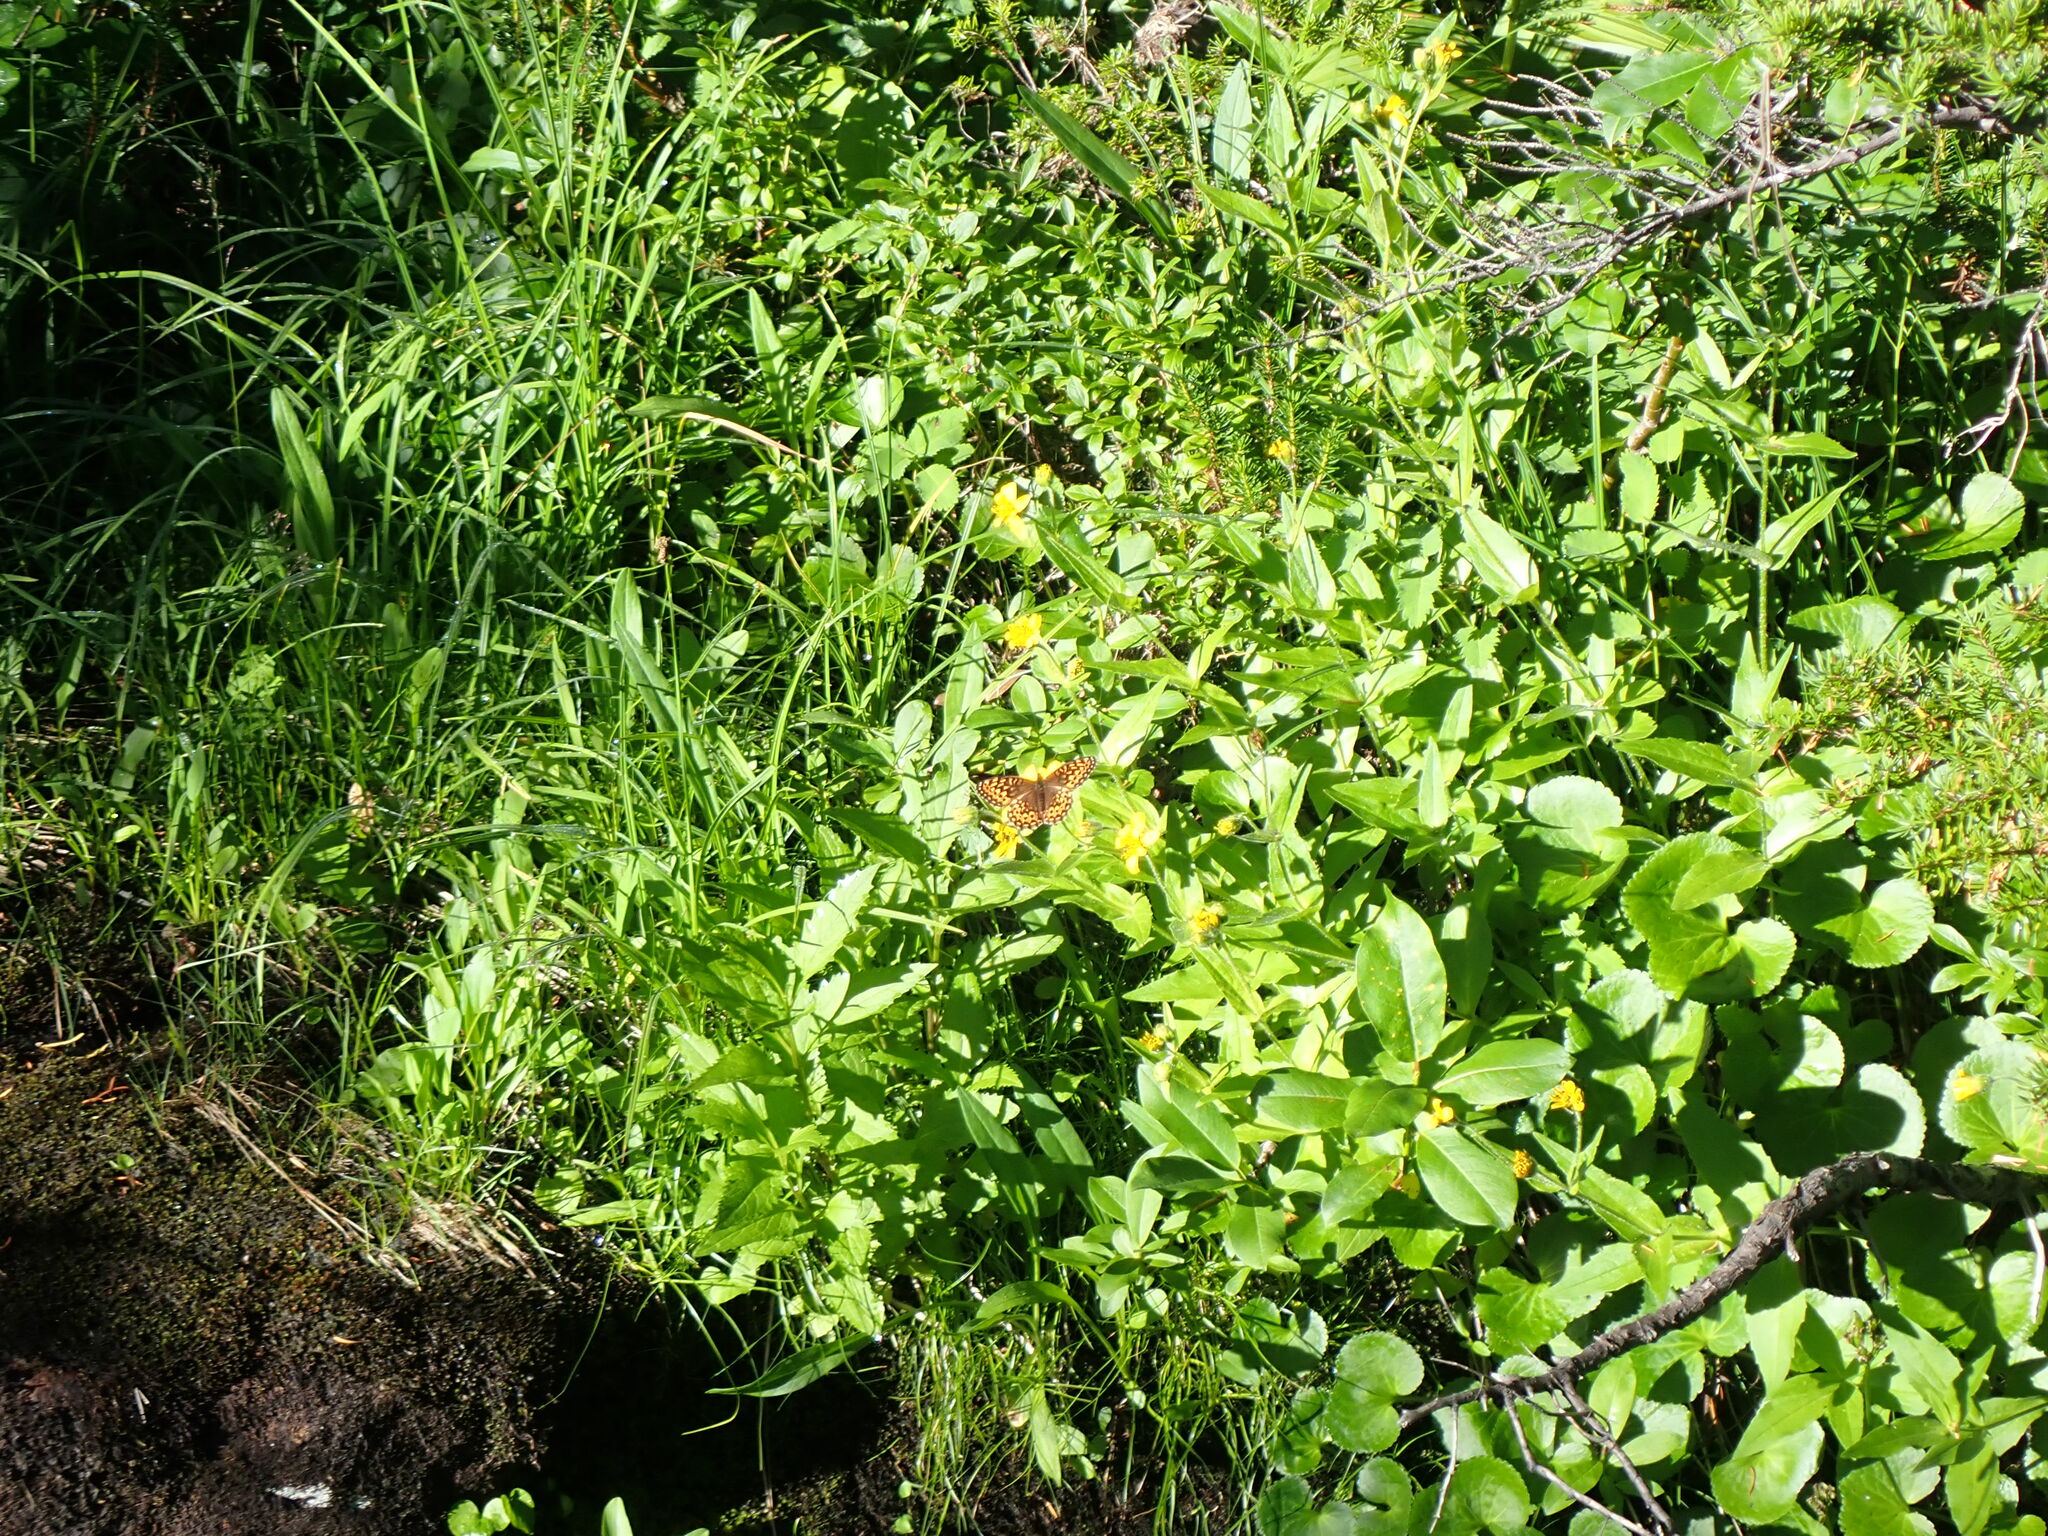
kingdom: Animalia
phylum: Arthropoda
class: Insecta
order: Lepidoptera
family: Nymphalidae
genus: Speyeria
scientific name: Speyeria hydaspe
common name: Hydaspe fritillary
